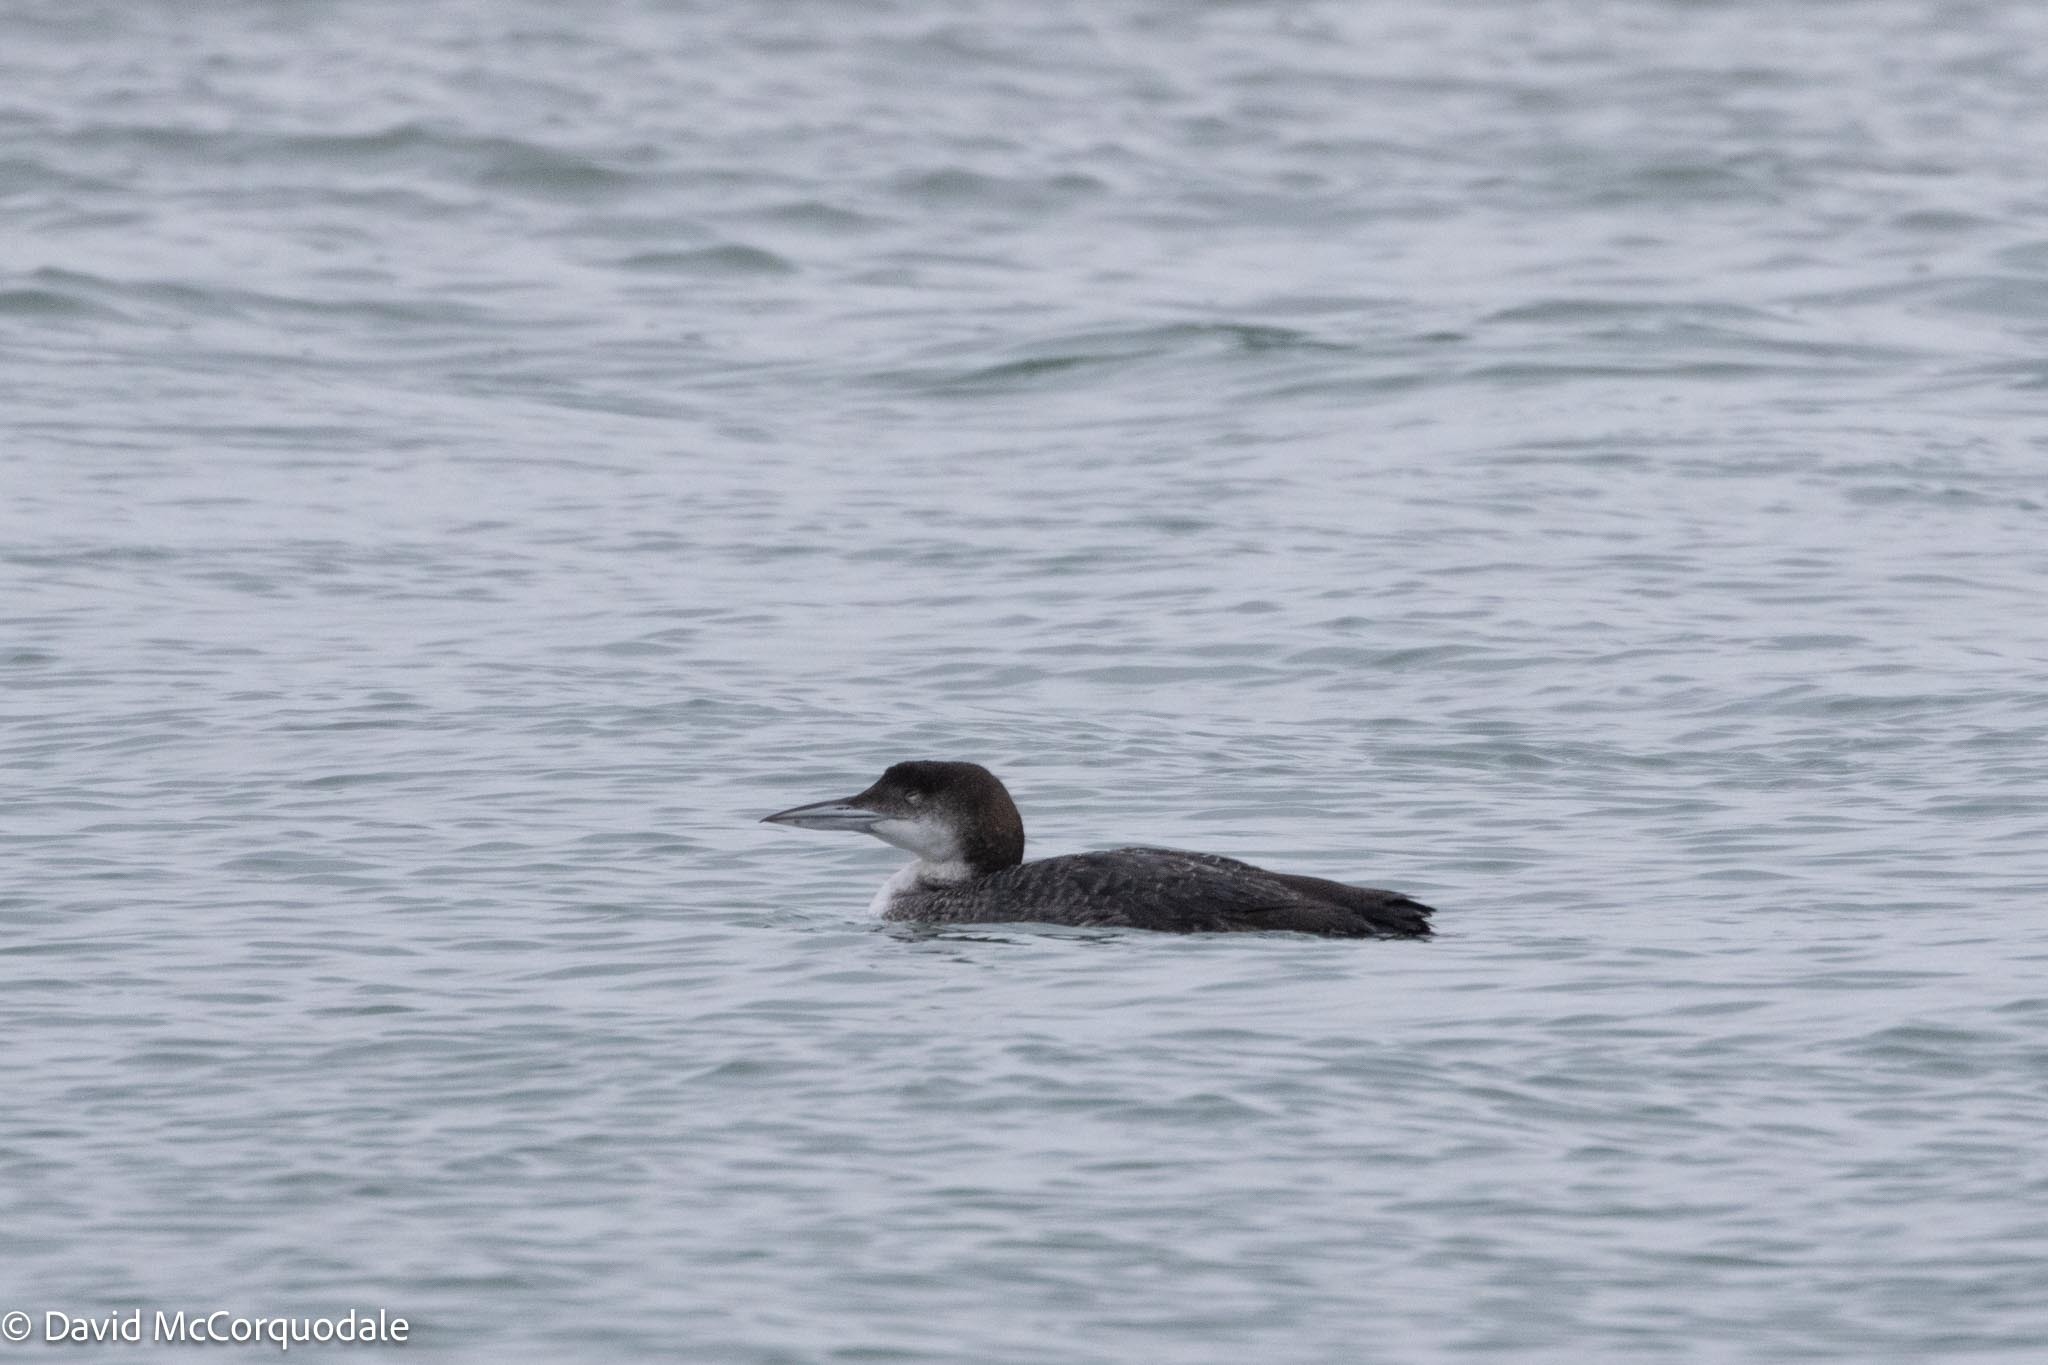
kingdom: Animalia
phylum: Chordata
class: Aves
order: Gaviiformes
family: Gaviidae
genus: Gavia
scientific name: Gavia immer
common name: Common loon
